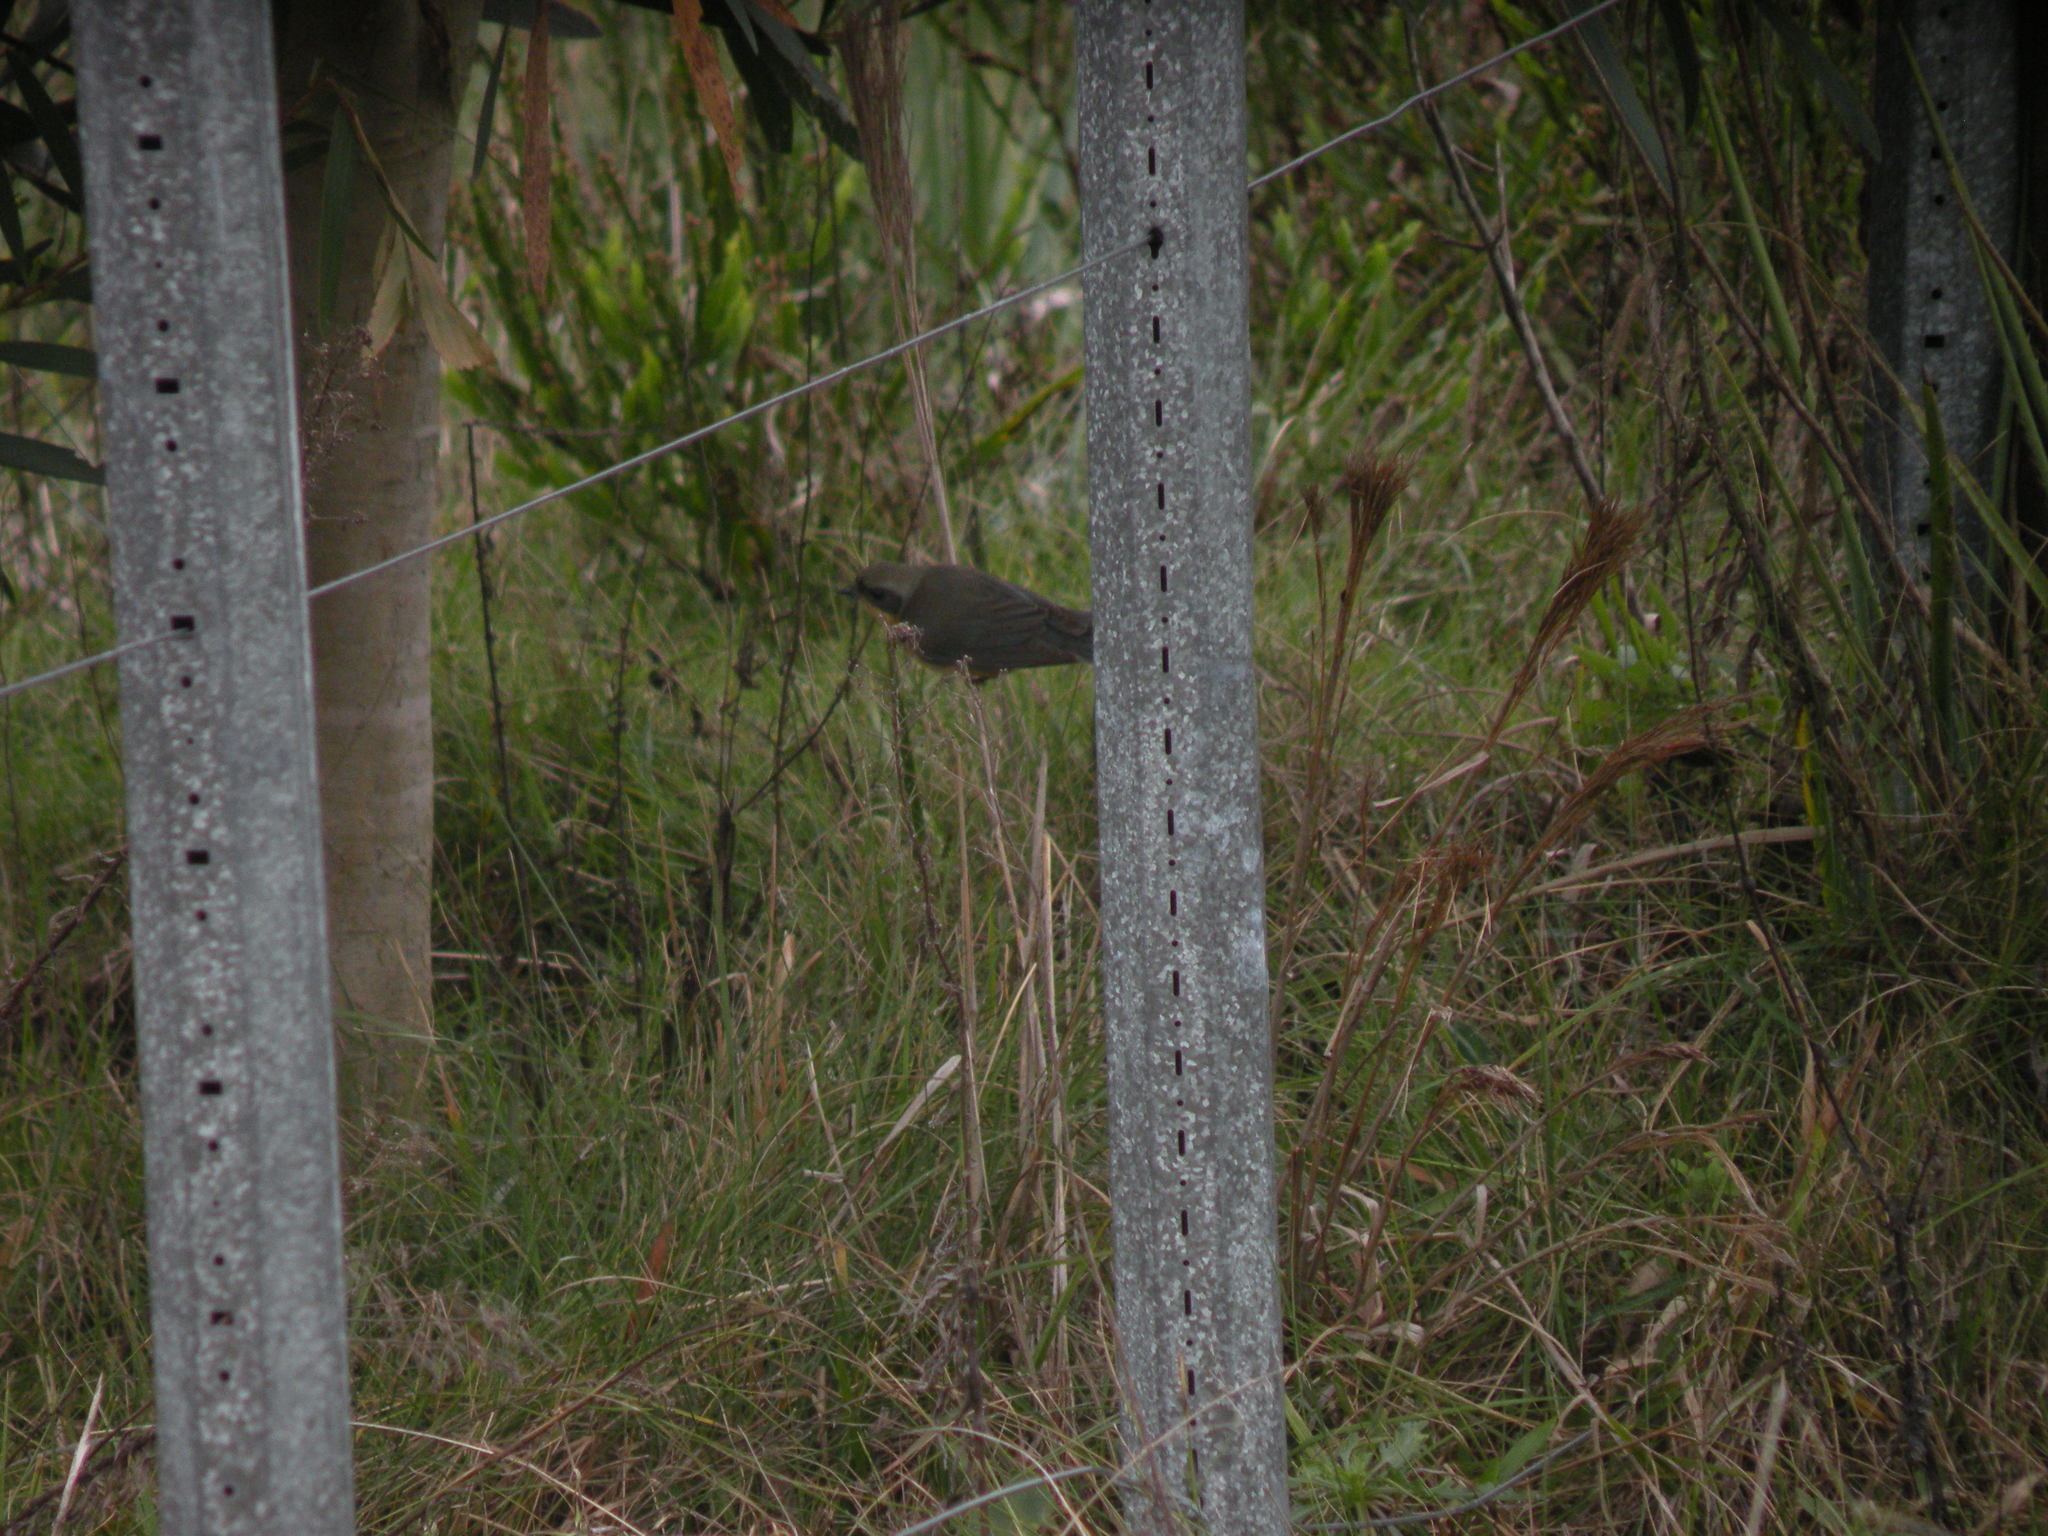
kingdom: Animalia
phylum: Chordata
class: Aves
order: Passeriformes
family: Thraupidae
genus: Pipraeidea
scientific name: Pipraeidea melanonota
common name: Fawn-breasted tanager
